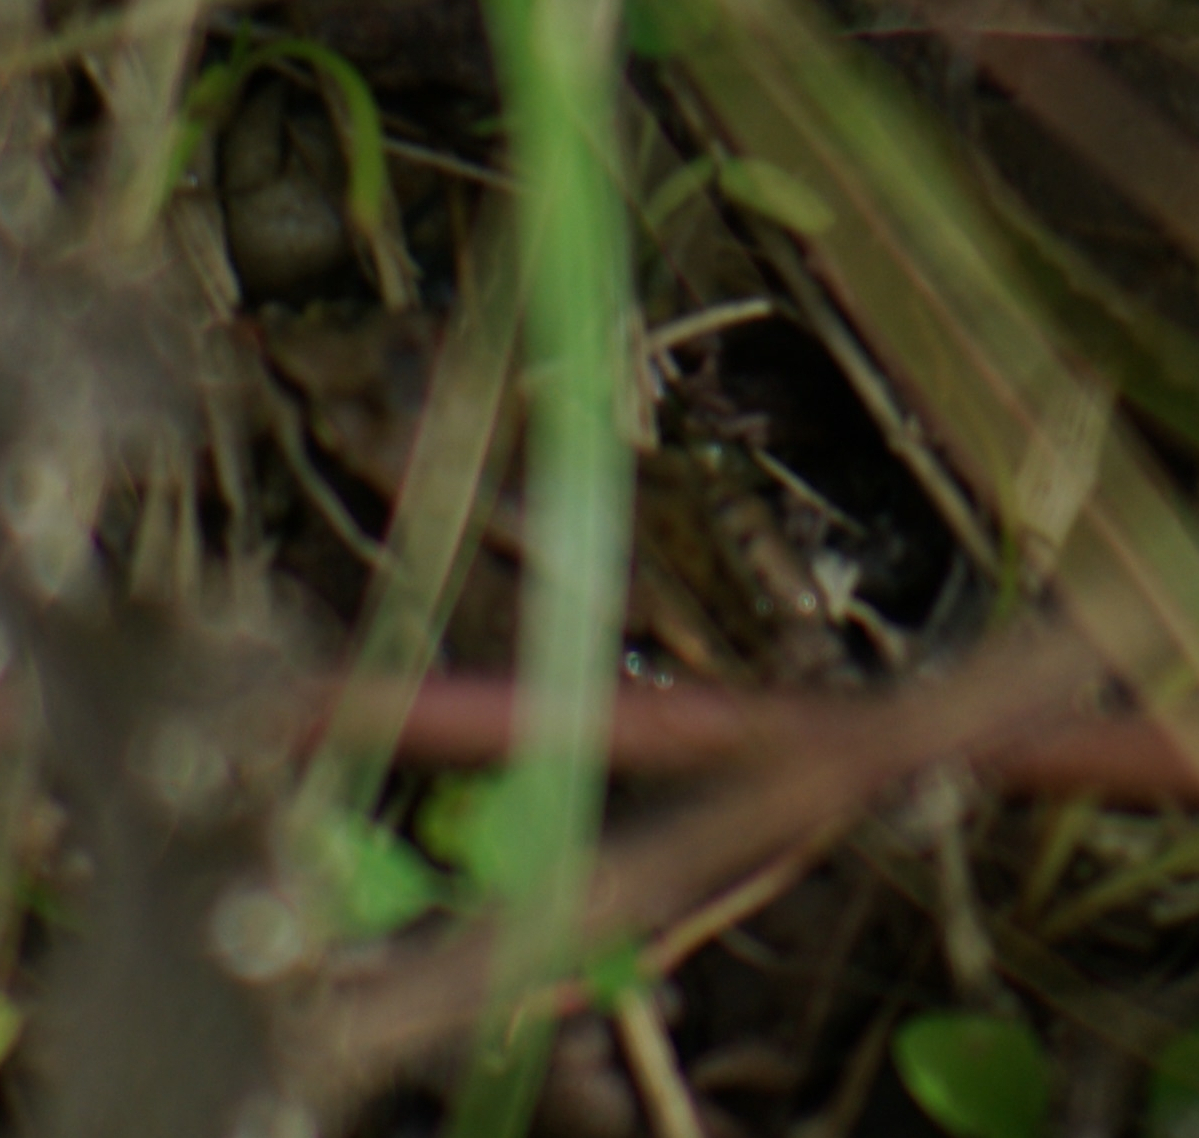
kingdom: Animalia
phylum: Chordata
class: Amphibia
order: Anura
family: Ranidae
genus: Lithobates
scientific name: Lithobates sylvaticus
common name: Wood frog
